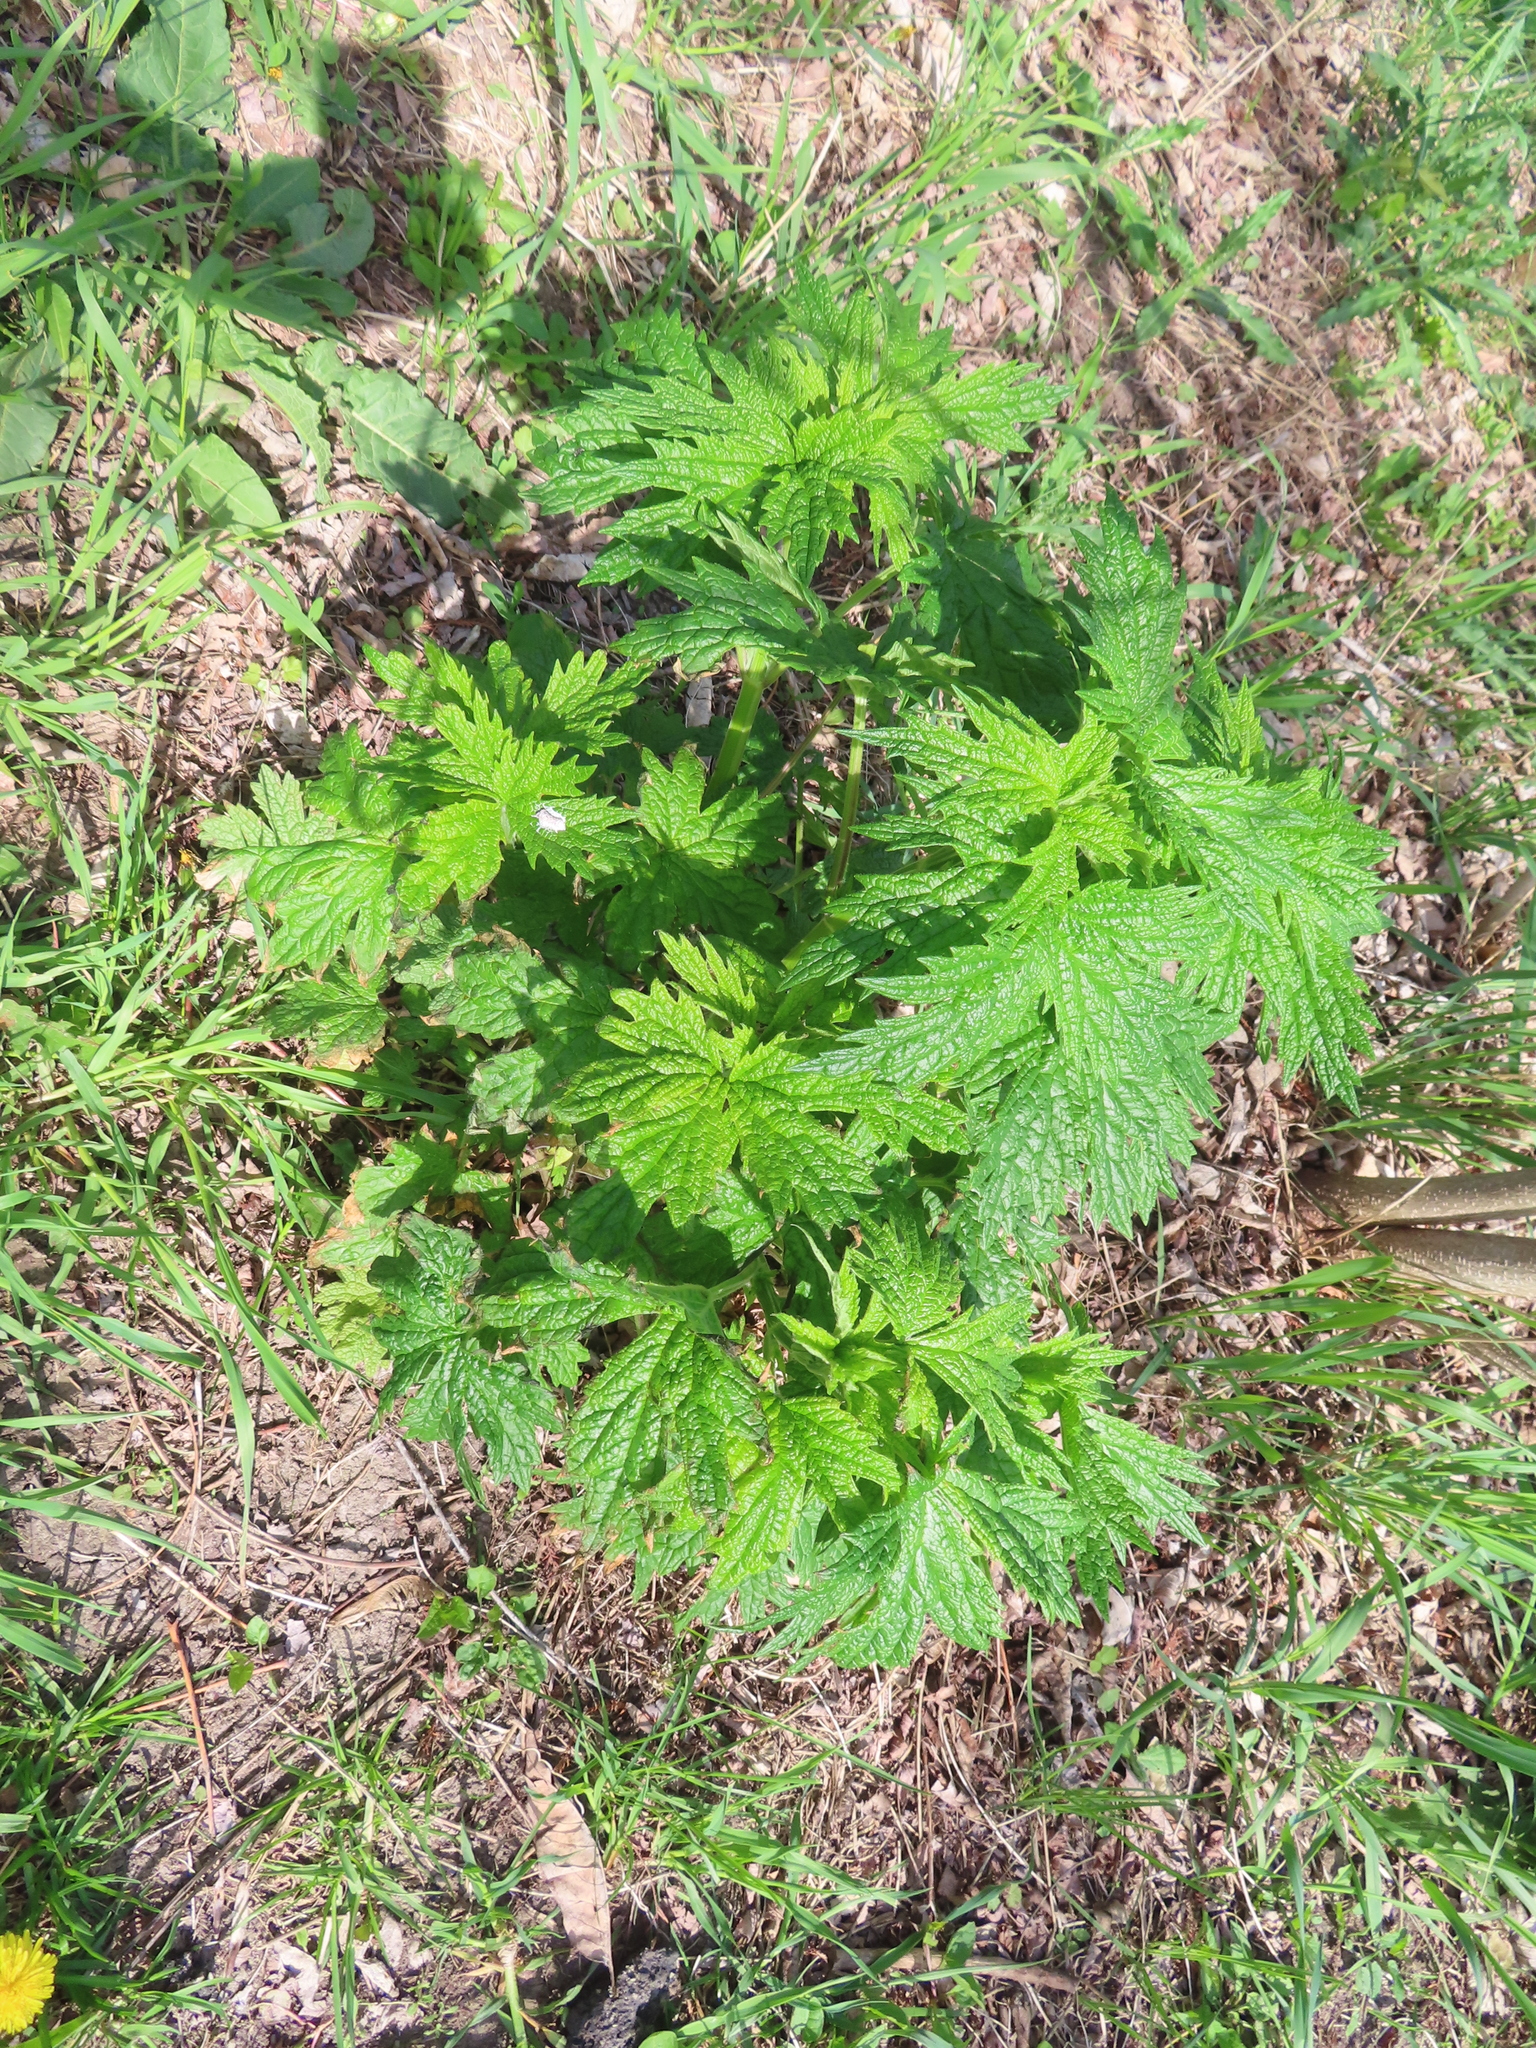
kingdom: Plantae
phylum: Tracheophyta
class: Magnoliopsida
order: Lamiales
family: Lamiaceae
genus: Leonurus
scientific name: Leonurus cardiaca
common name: Motherwort
